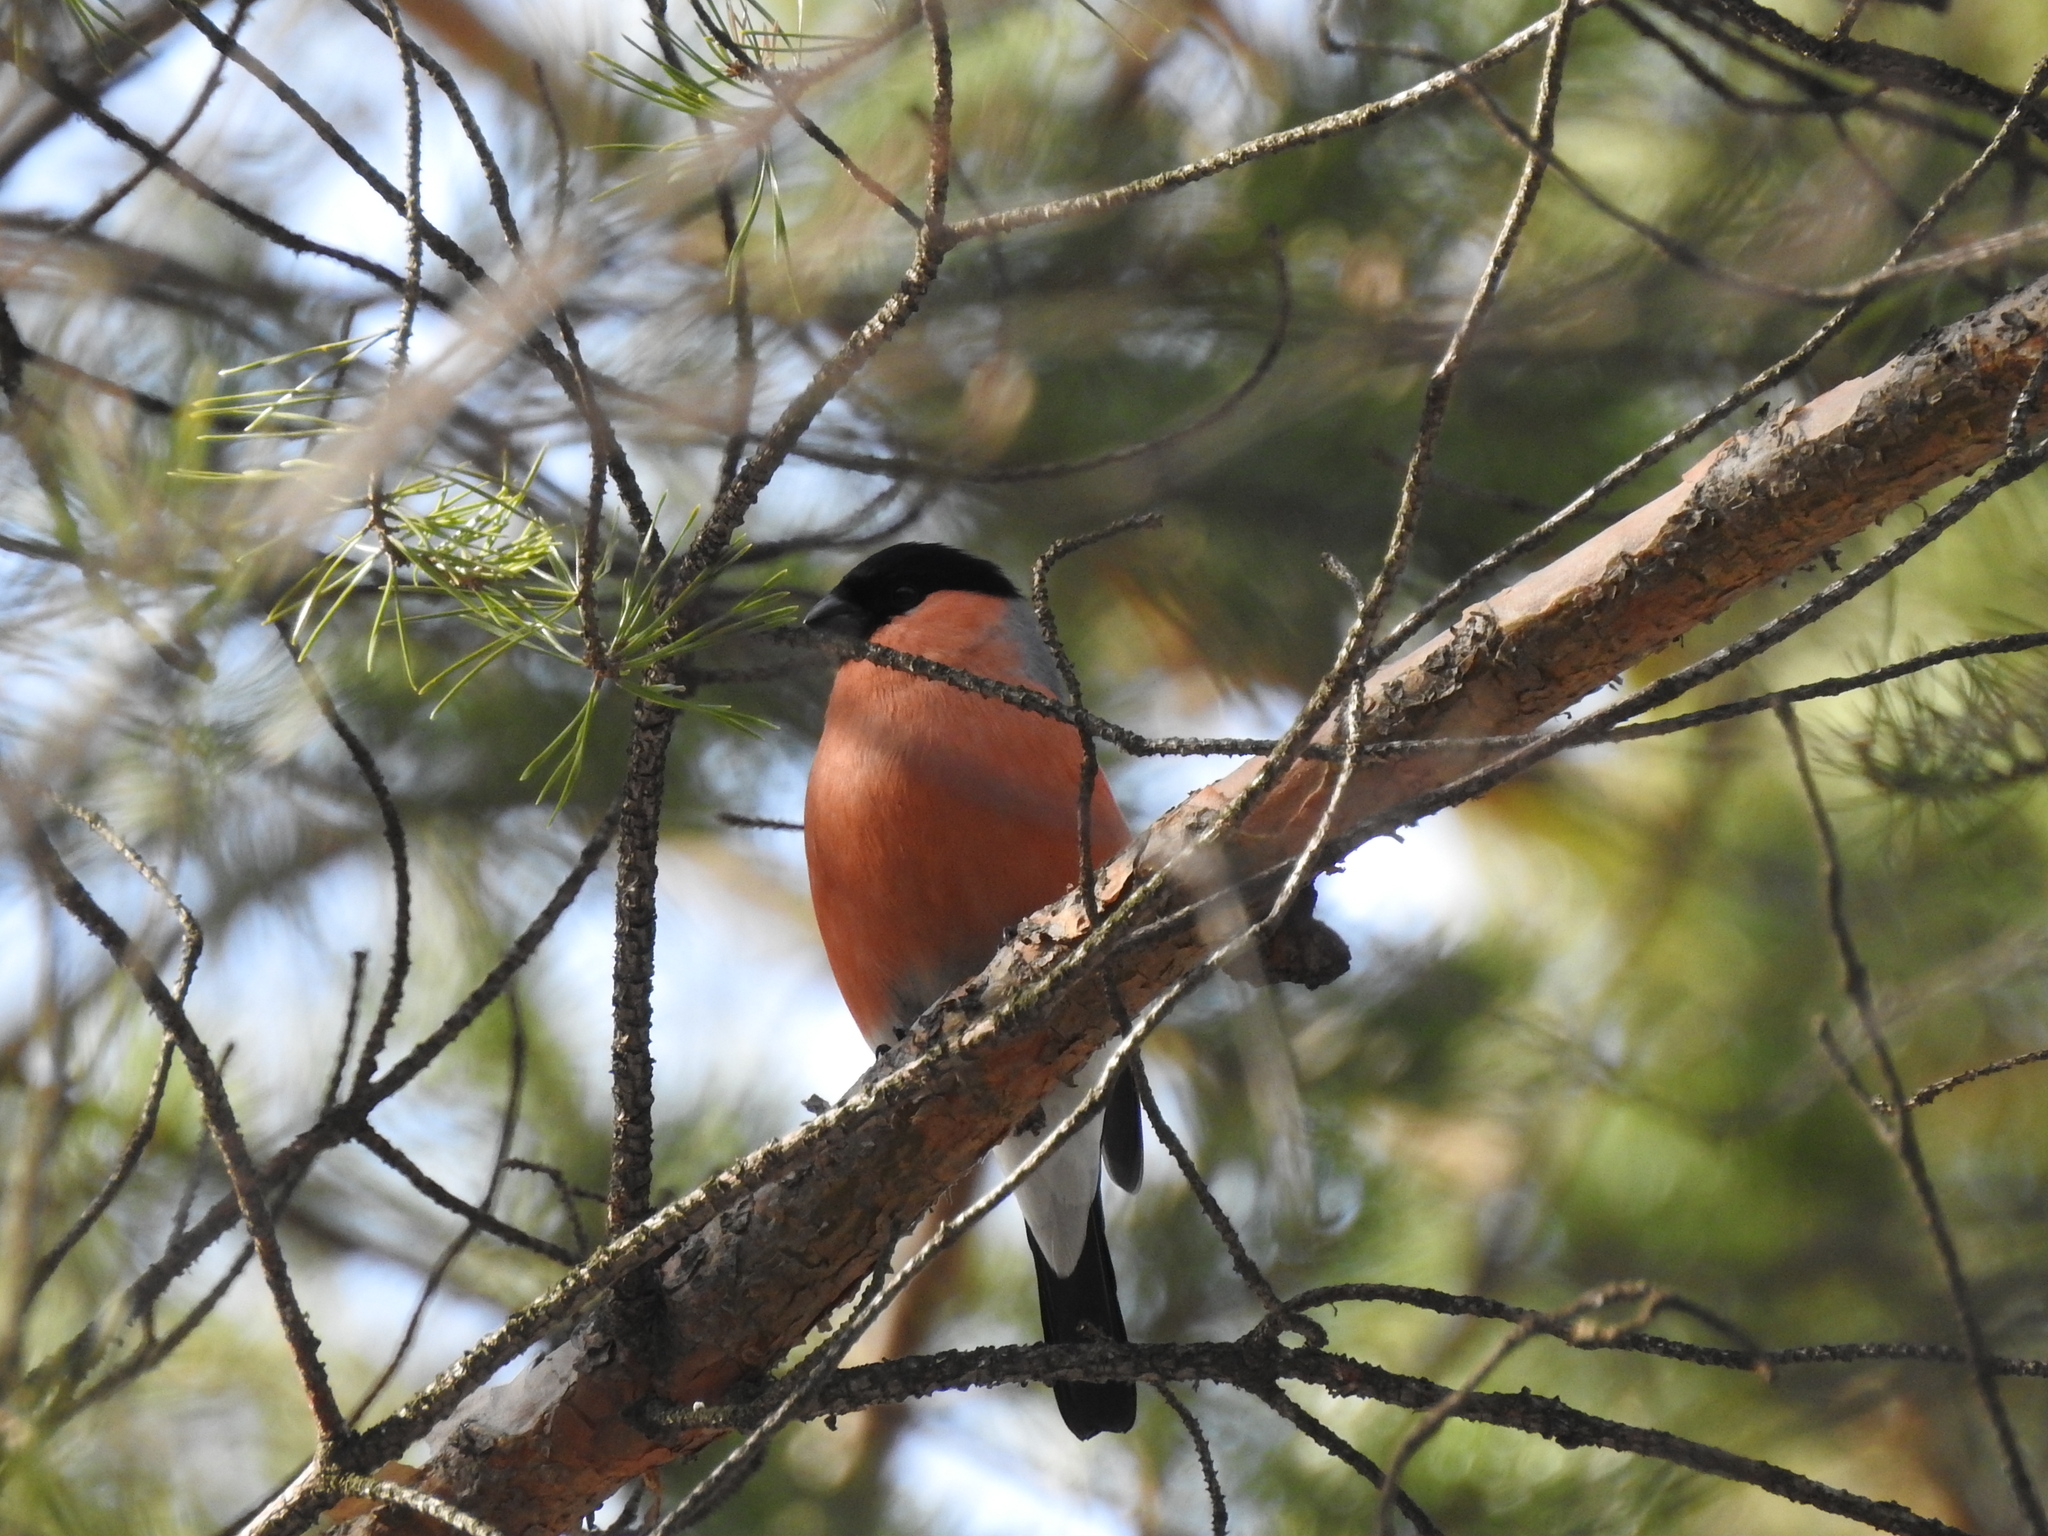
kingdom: Animalia
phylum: Chordata
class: Aves
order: Passeriformes
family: Fringillidae
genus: Pyrrhula
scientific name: Pyrrhula pyrrhula
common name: Eurasian bullfinch
